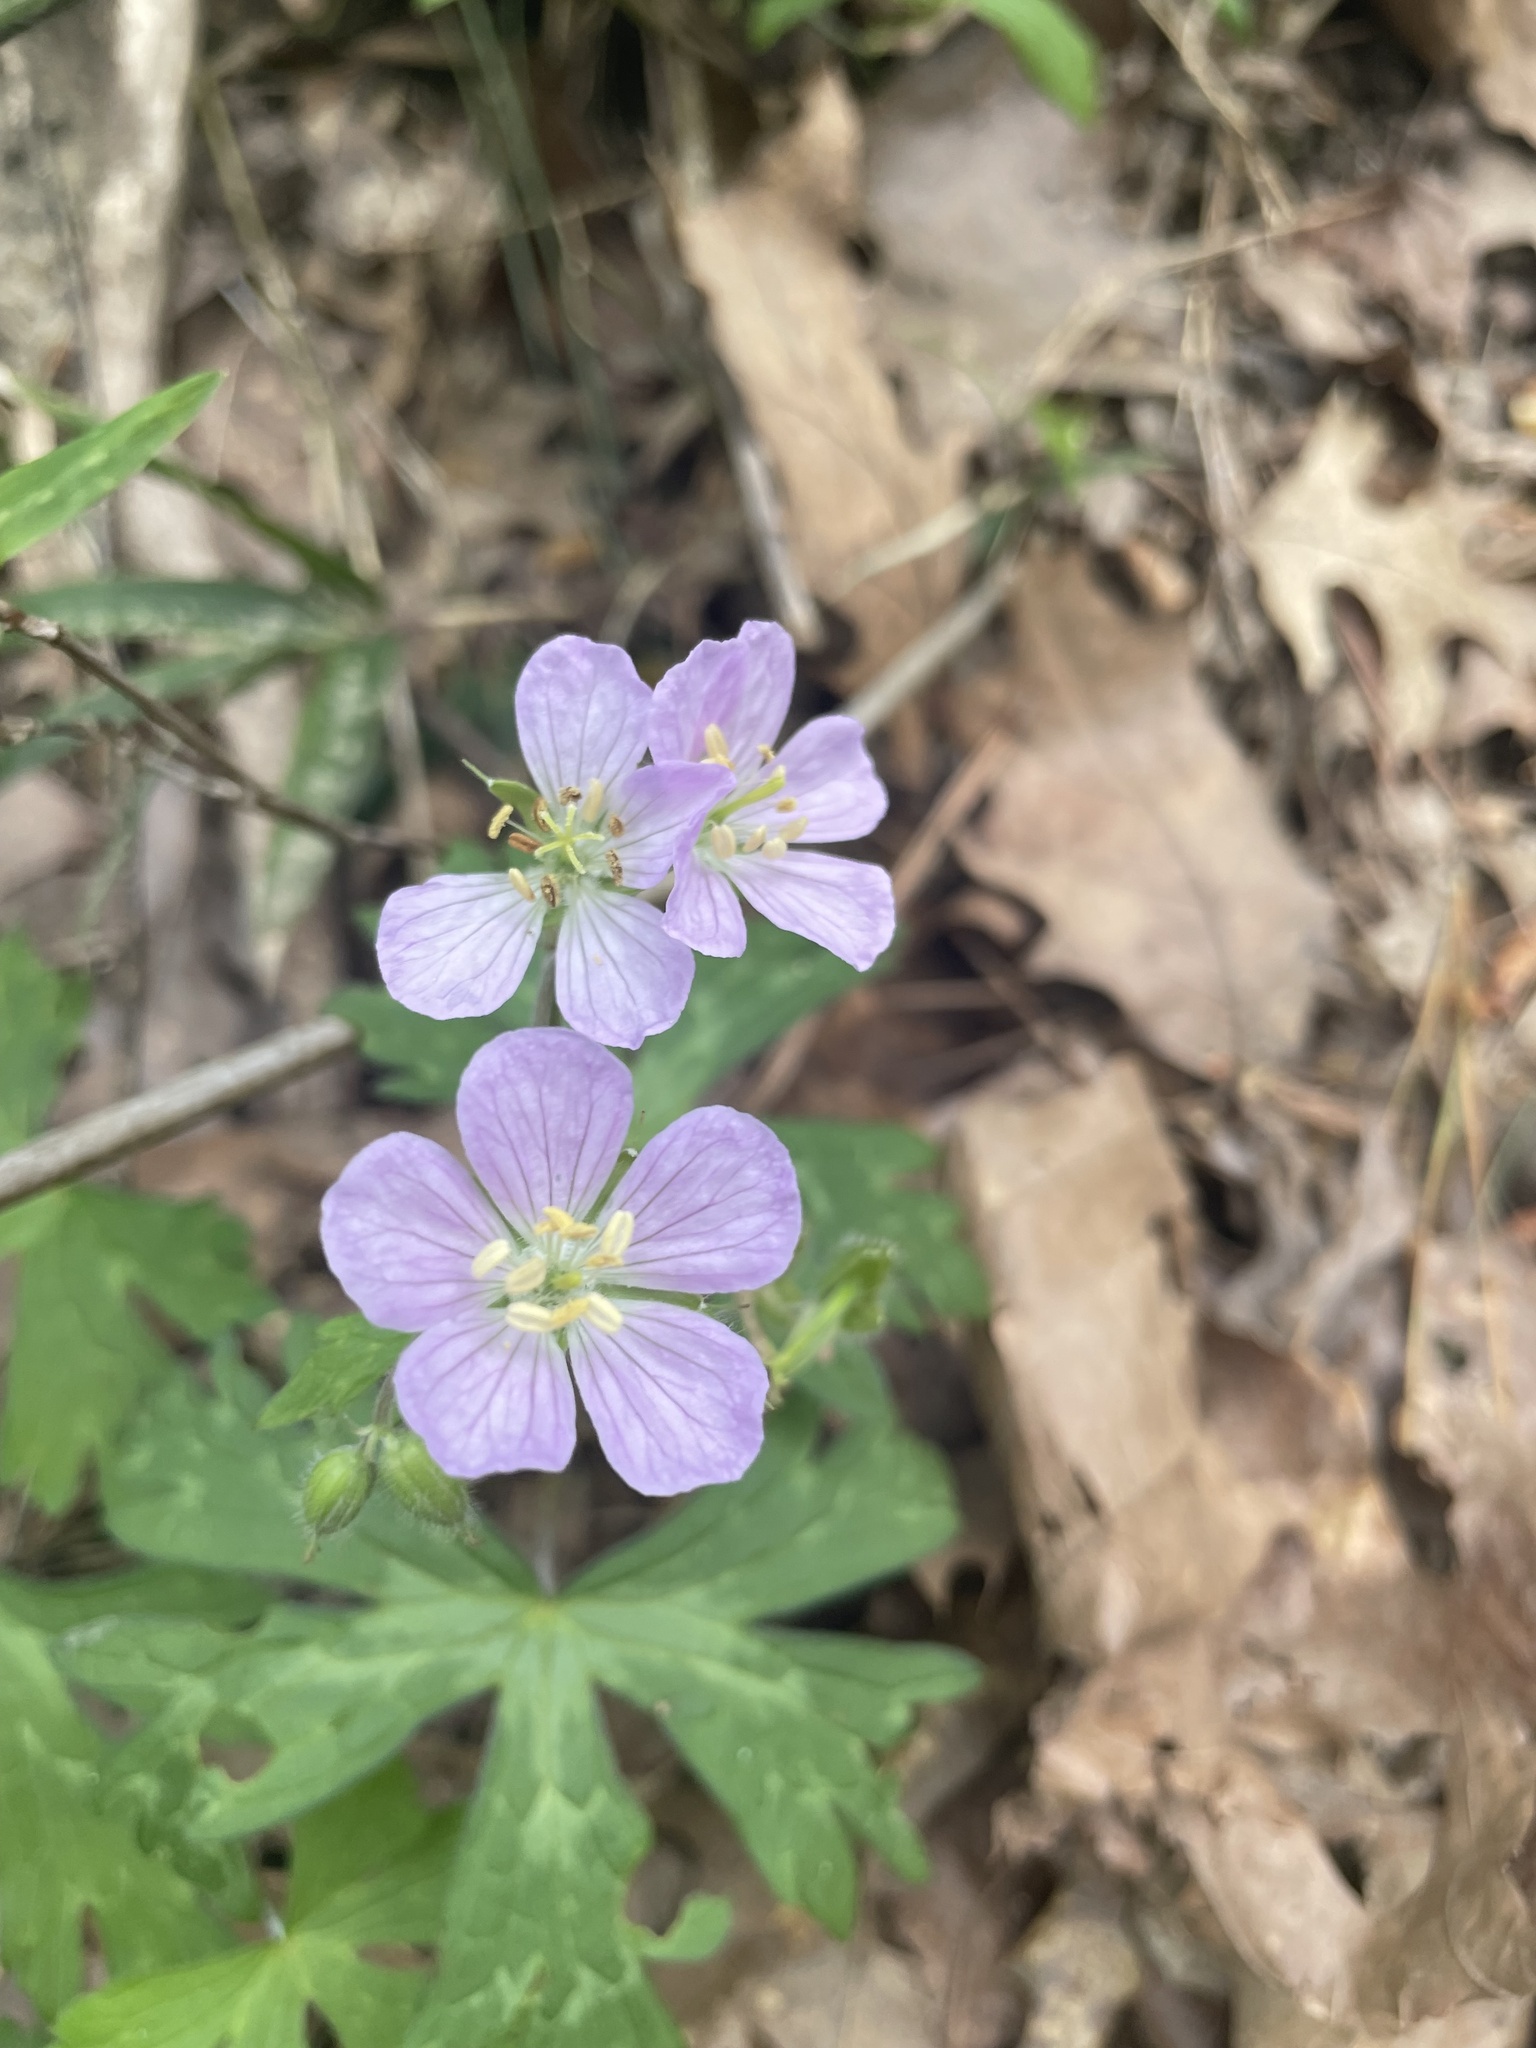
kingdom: Plantae
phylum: Tracheophyta
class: Magnoliopsida
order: Geraniales
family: Geraniaceae
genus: Geranium
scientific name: Geranium maculatum
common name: Spotted geranium
